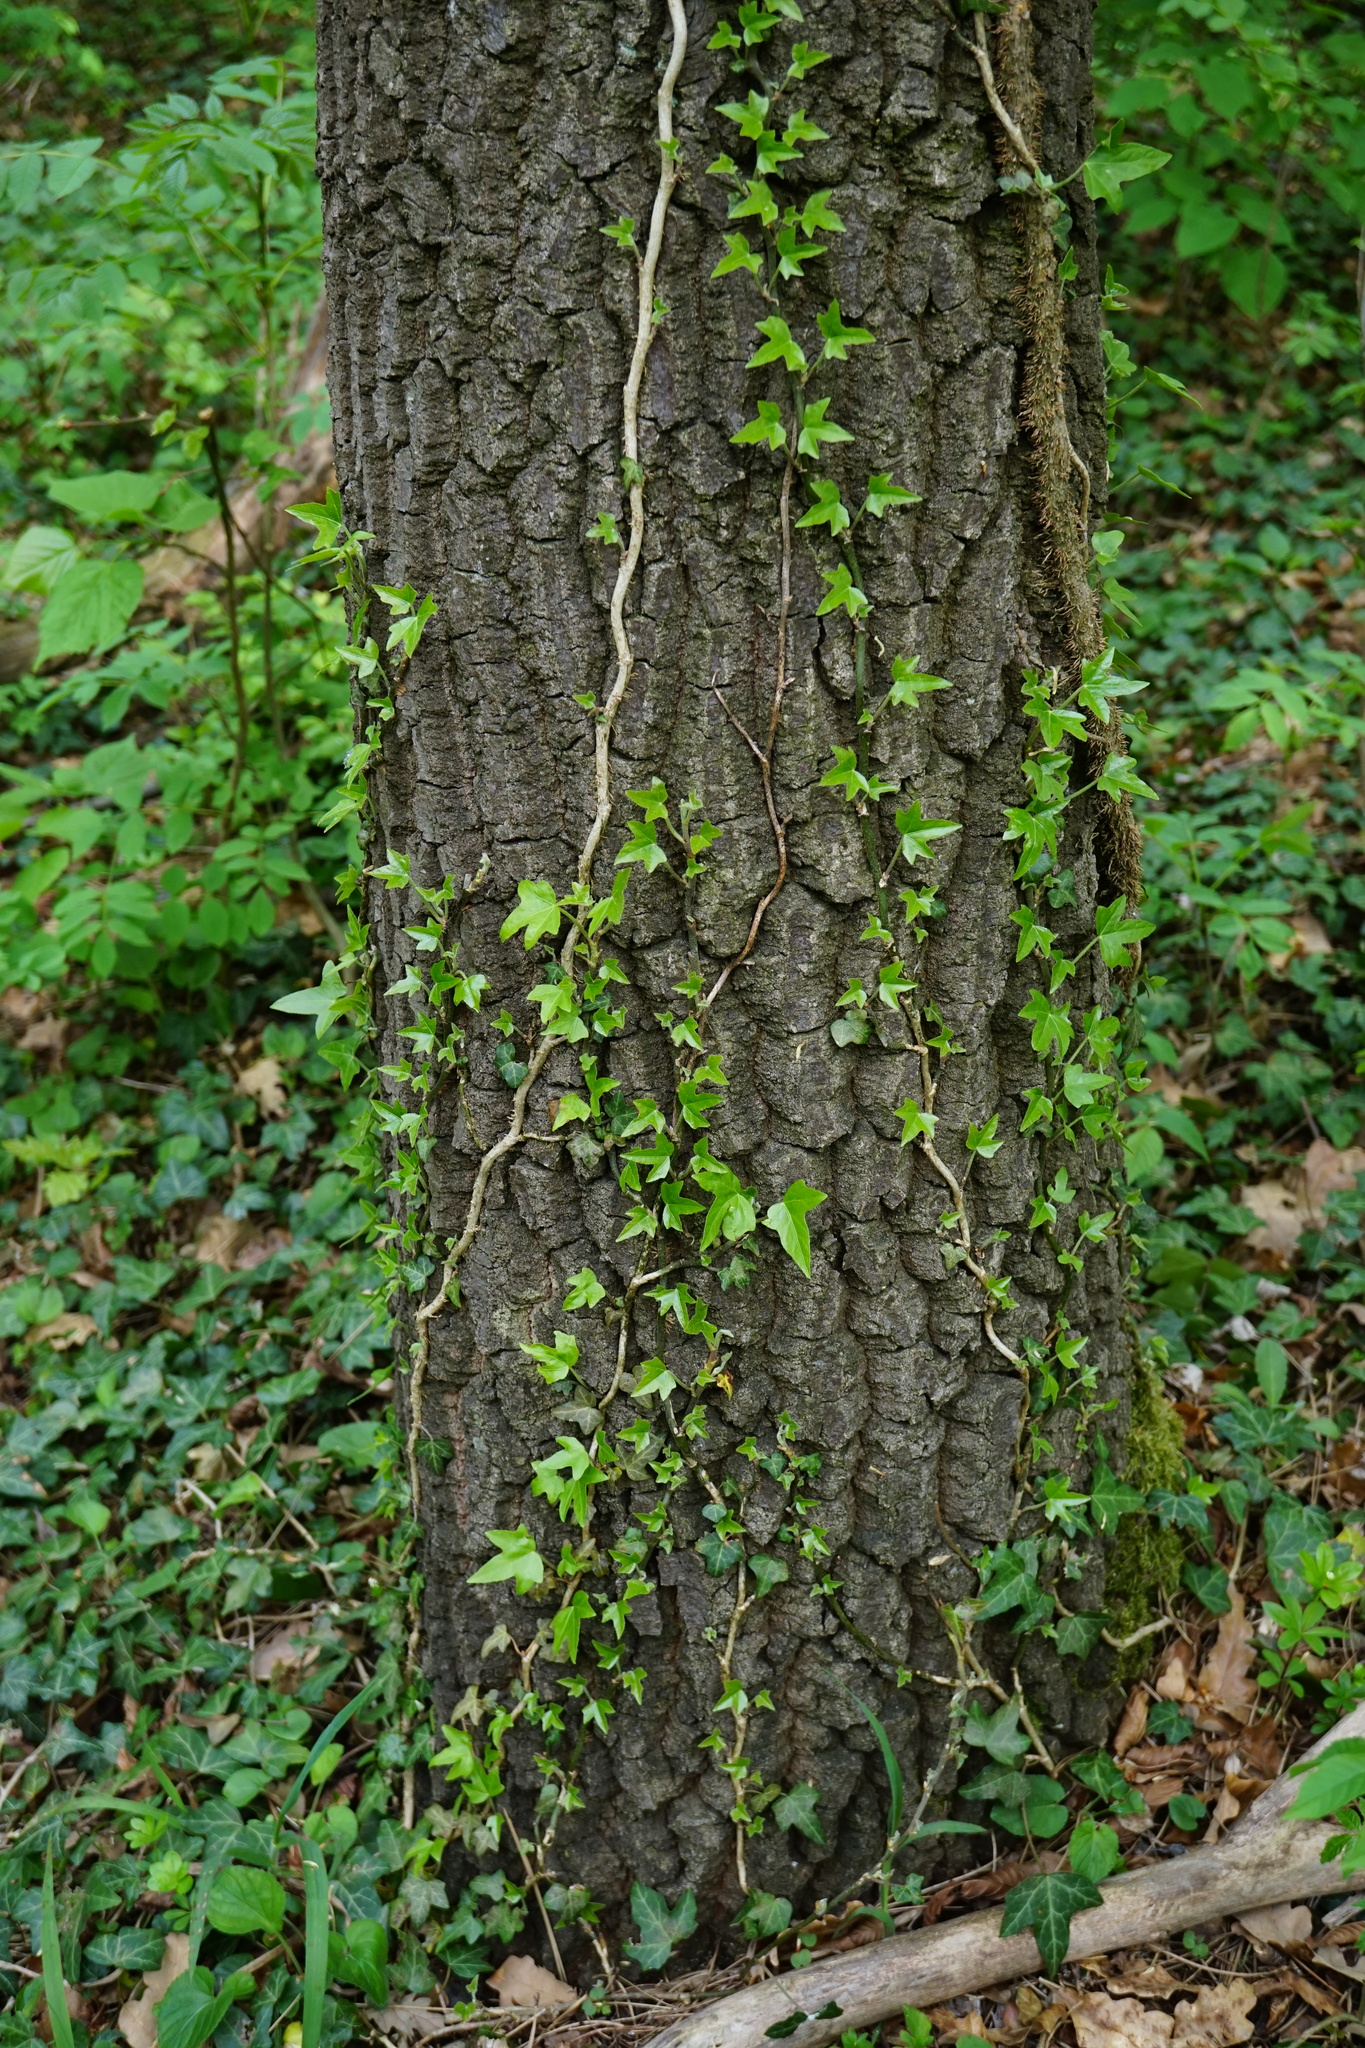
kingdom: Plantae
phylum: Tracheophyta
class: Magnoliopsida
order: Apiales
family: Araliaceae
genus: Hedera
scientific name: Hedera helix
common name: Ivy
